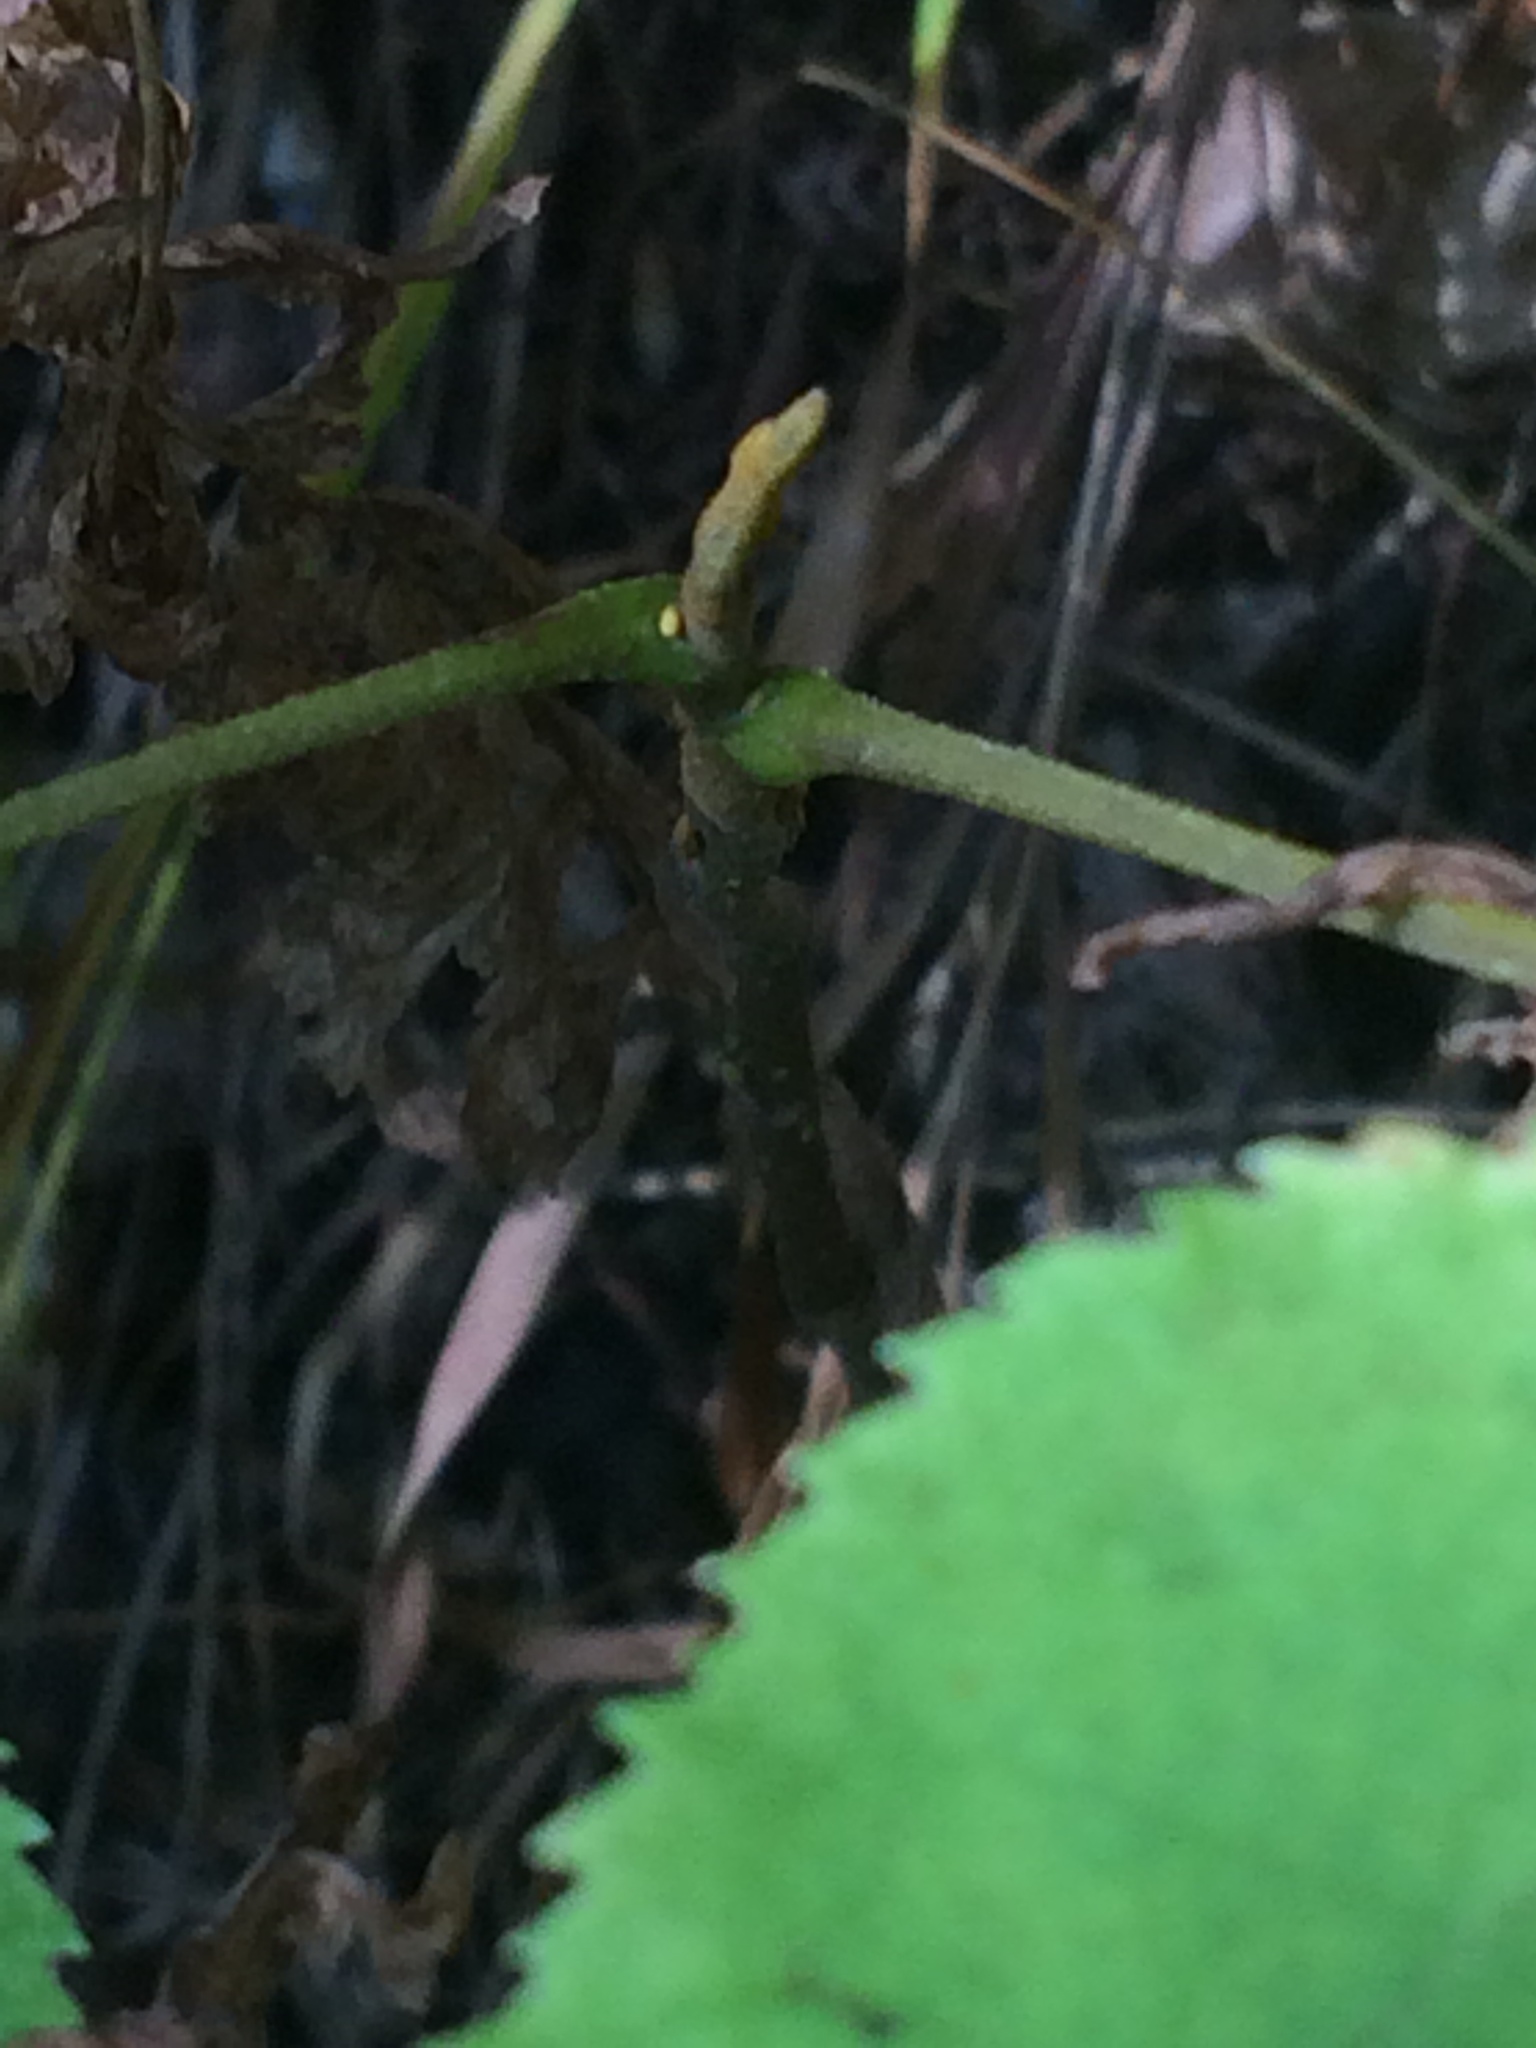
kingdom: Plantae
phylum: Tracheophyta
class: Magnoliopsida
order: Fagales
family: Juglandaceae
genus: Carya
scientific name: Carya cordiformis
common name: Bitternut hickory
